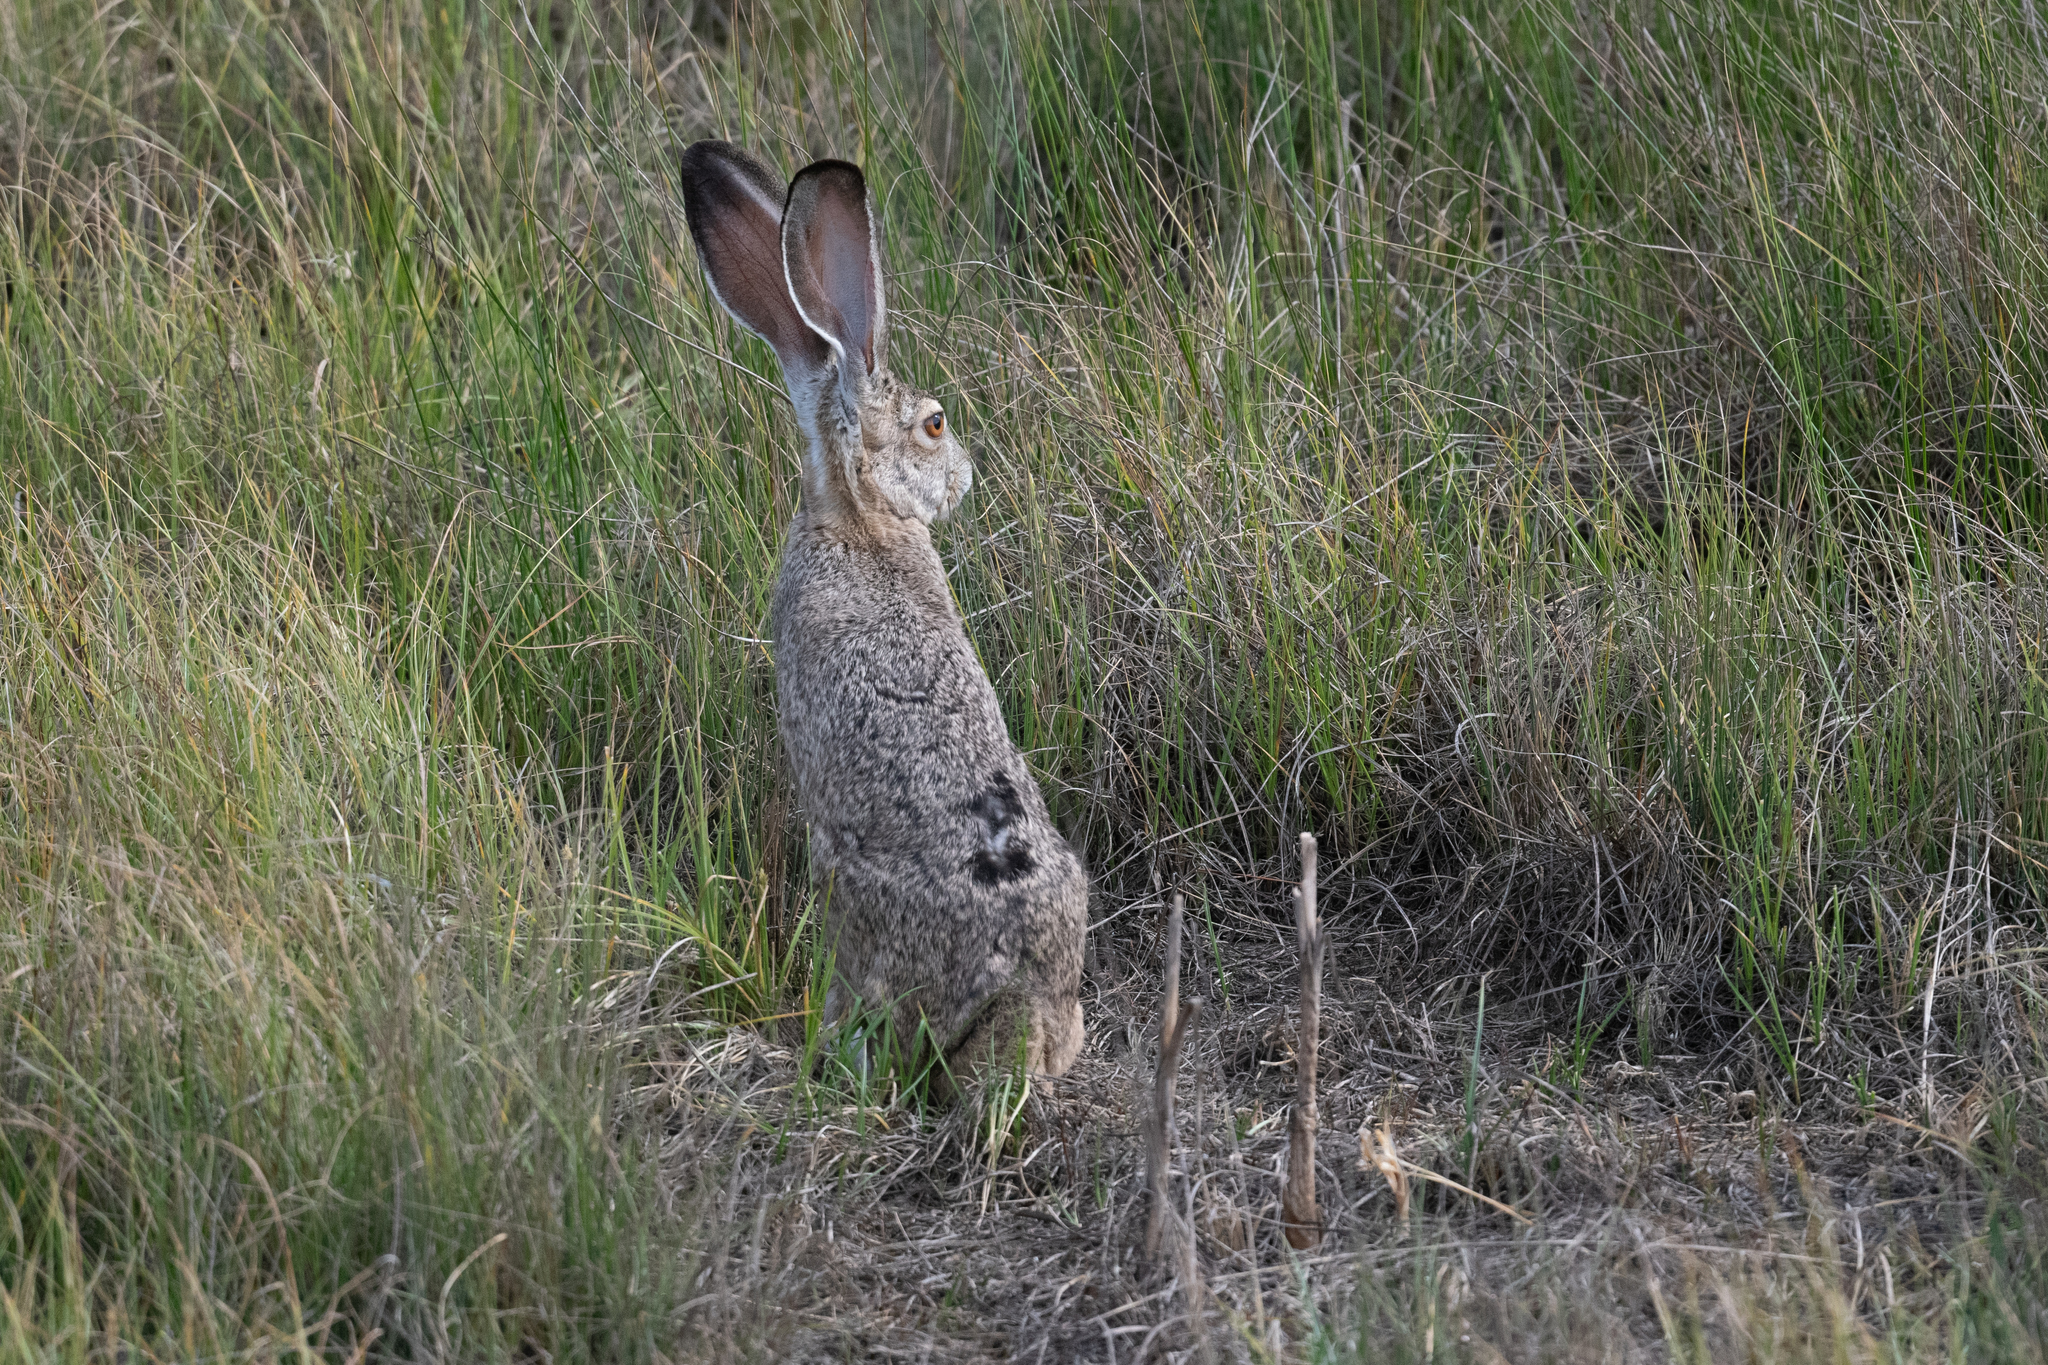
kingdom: Animalia
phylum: Chordata
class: Mammalia
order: Lagomorpha
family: Leporidae
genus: Lepus
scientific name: Lepus californicus
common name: Black-tailed jackrabbit
